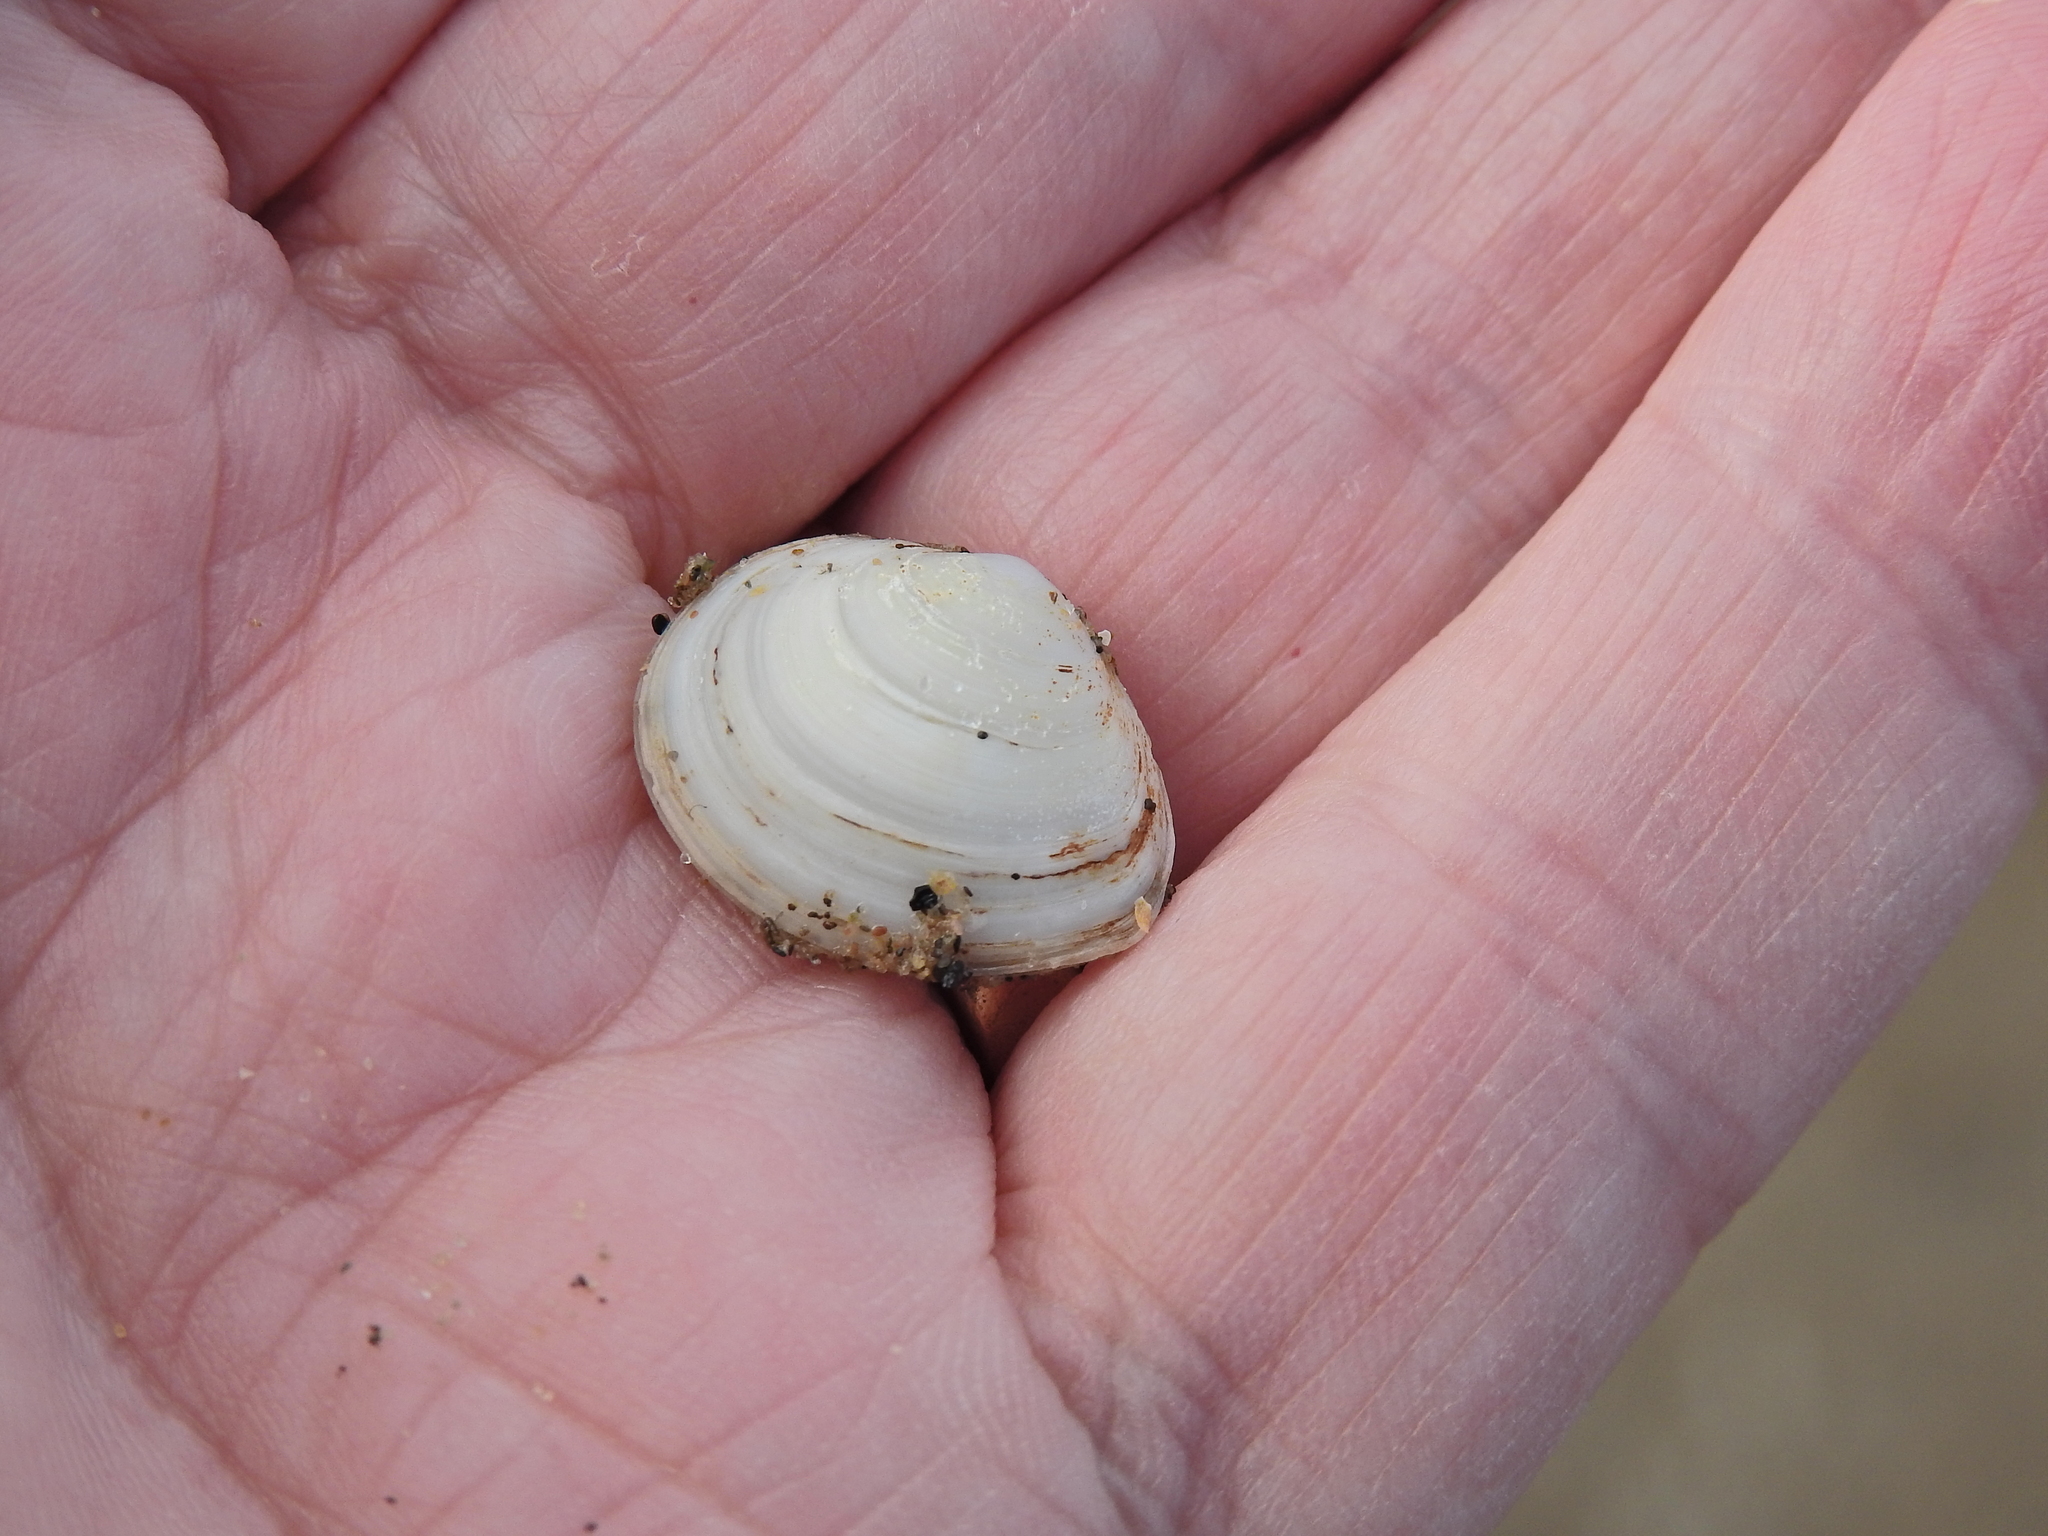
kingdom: Animalia
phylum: Mollusca
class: Bivalvia
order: Cardiida
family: Tellinidae
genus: Macoma
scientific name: Macoma balthica
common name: Baltic tellin
